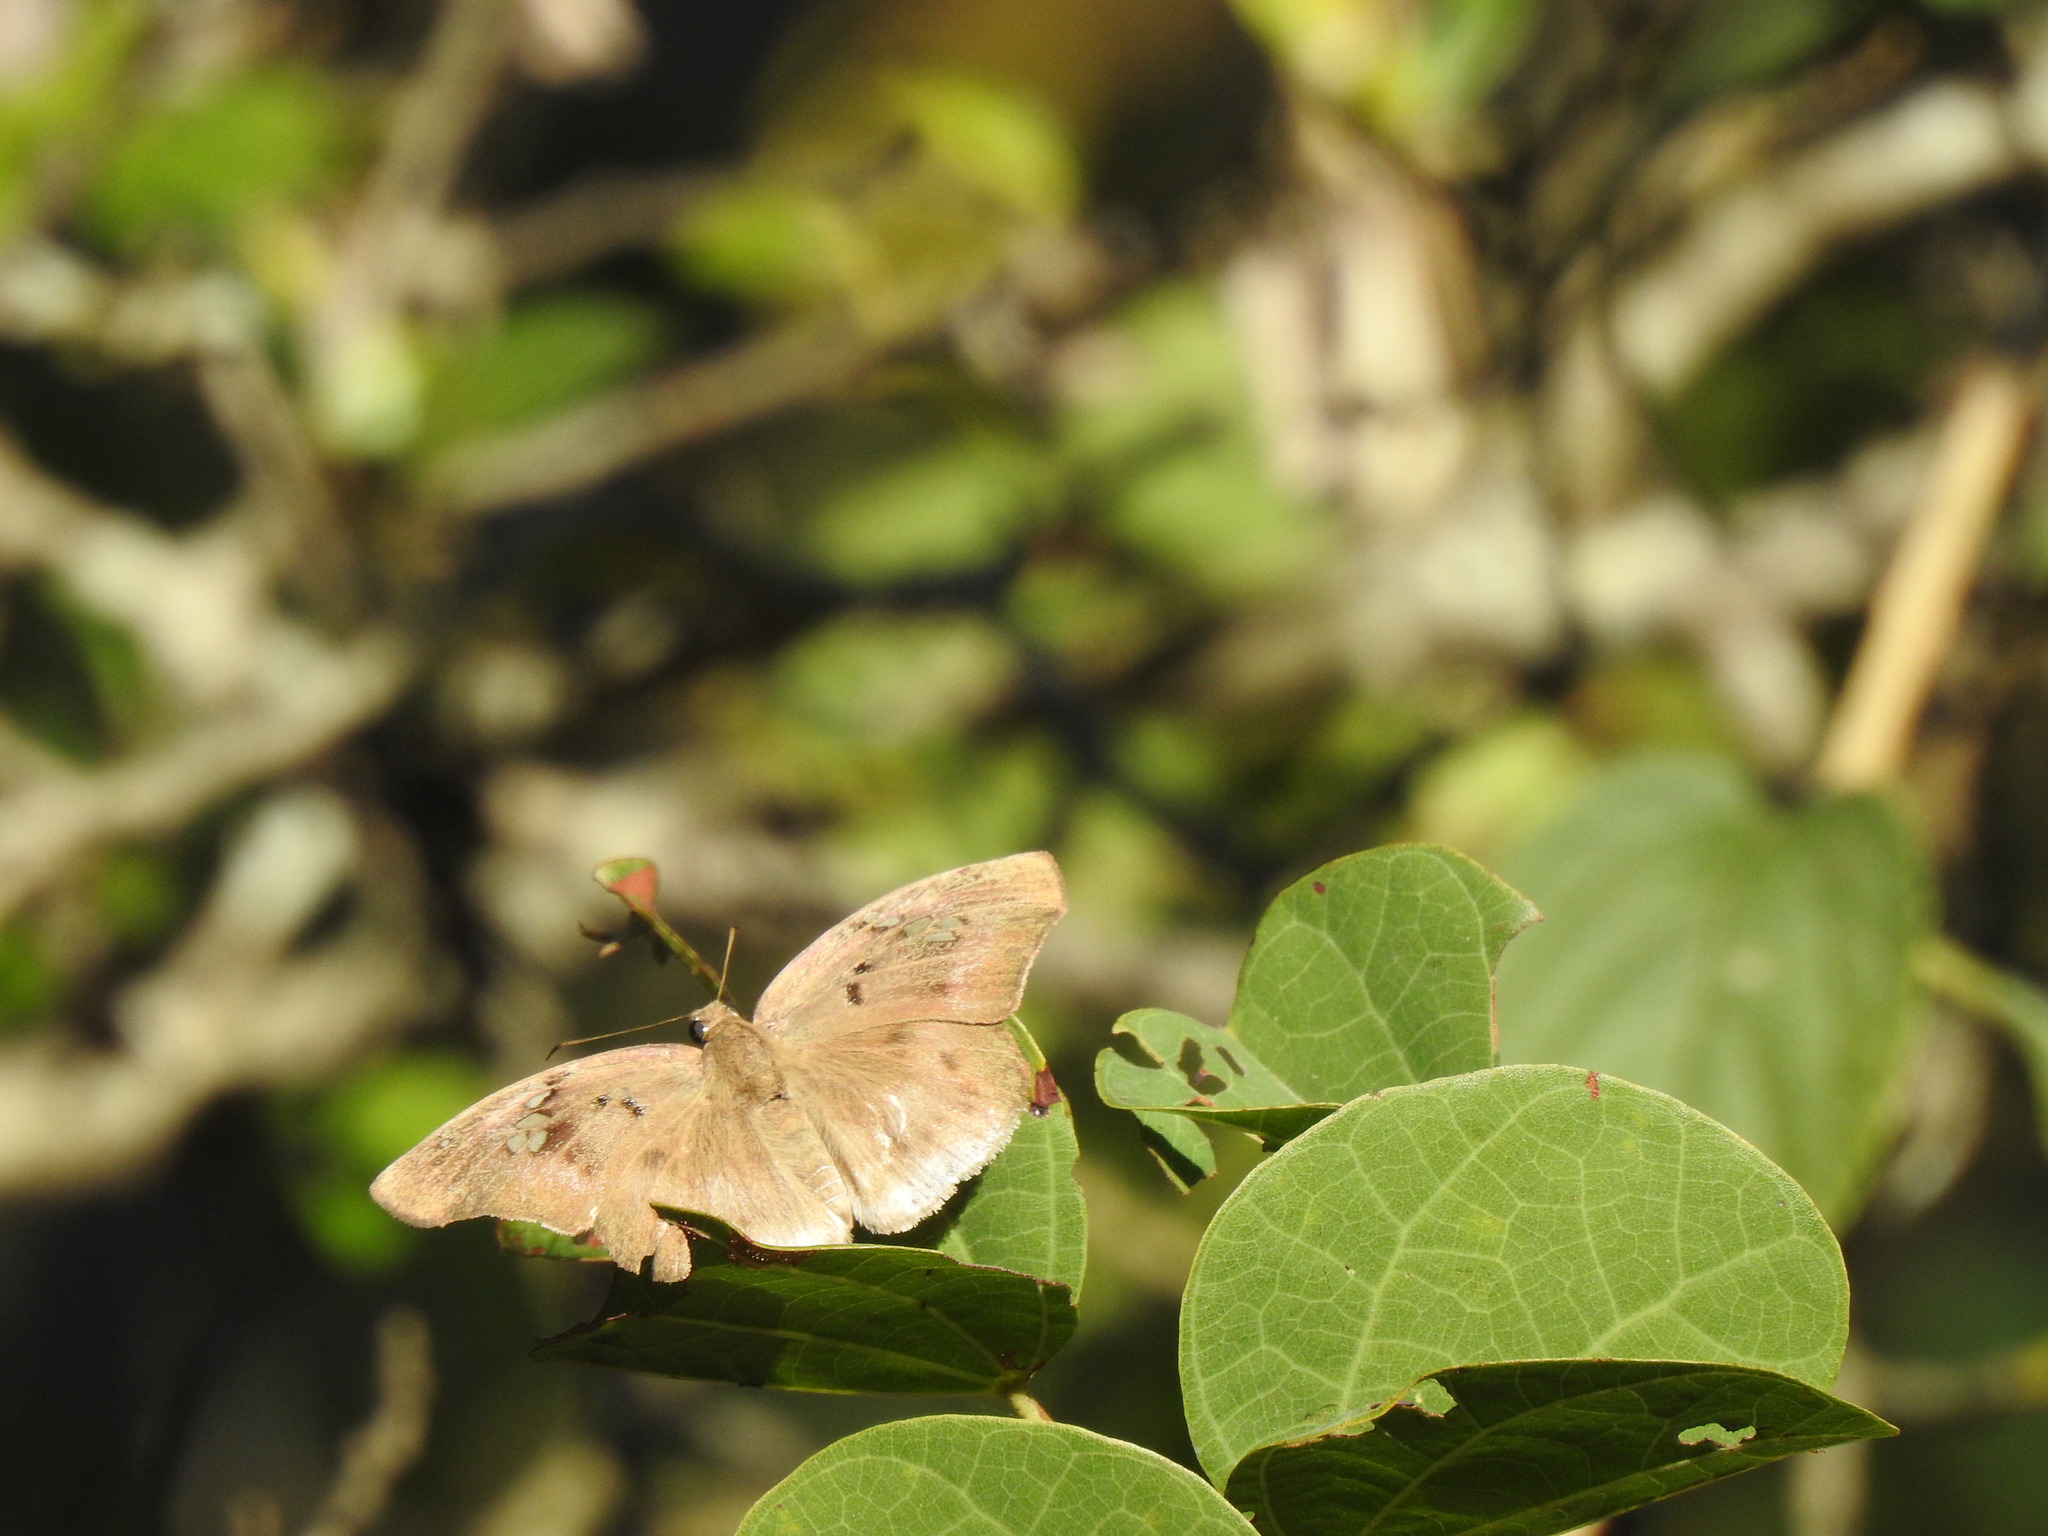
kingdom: Animalia
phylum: Arthropoda
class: Insecta
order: Lepidoptera
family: Hesperiidae
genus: Tagiades
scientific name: Tagiades flesus
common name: Clouded flat
